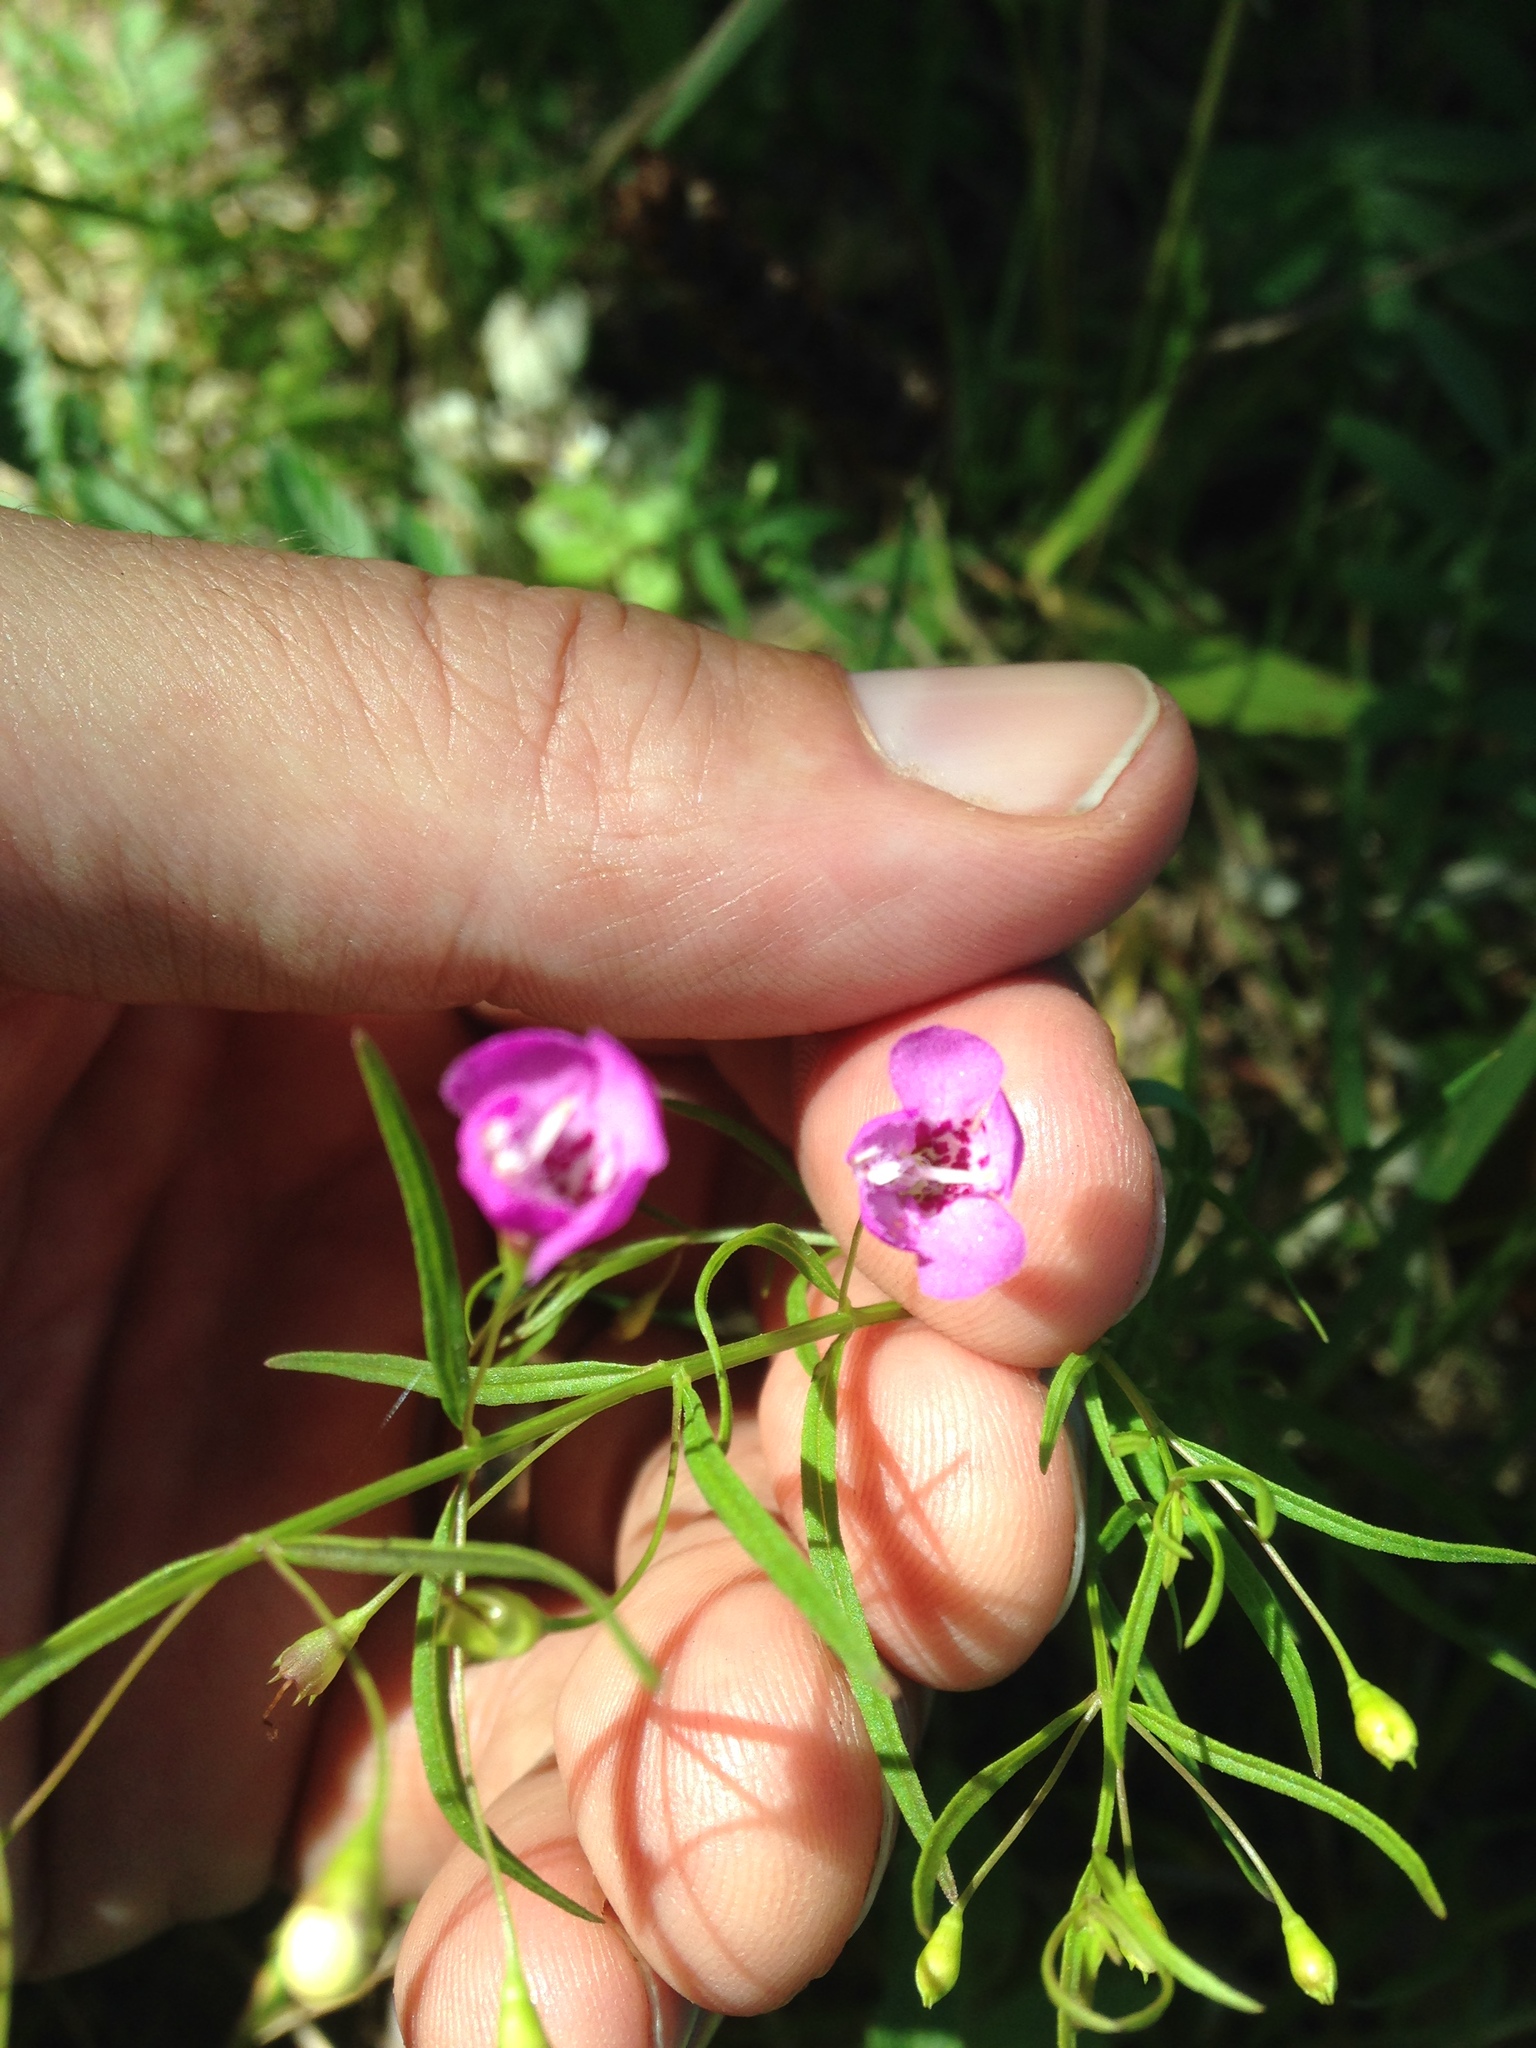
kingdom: Plantae
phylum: Tracheophyta
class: Magnoliopsida
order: Lamiales
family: Orobanchaceae
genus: Agalinis
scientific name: Agalinis tenuifolia
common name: Slender agalinis
